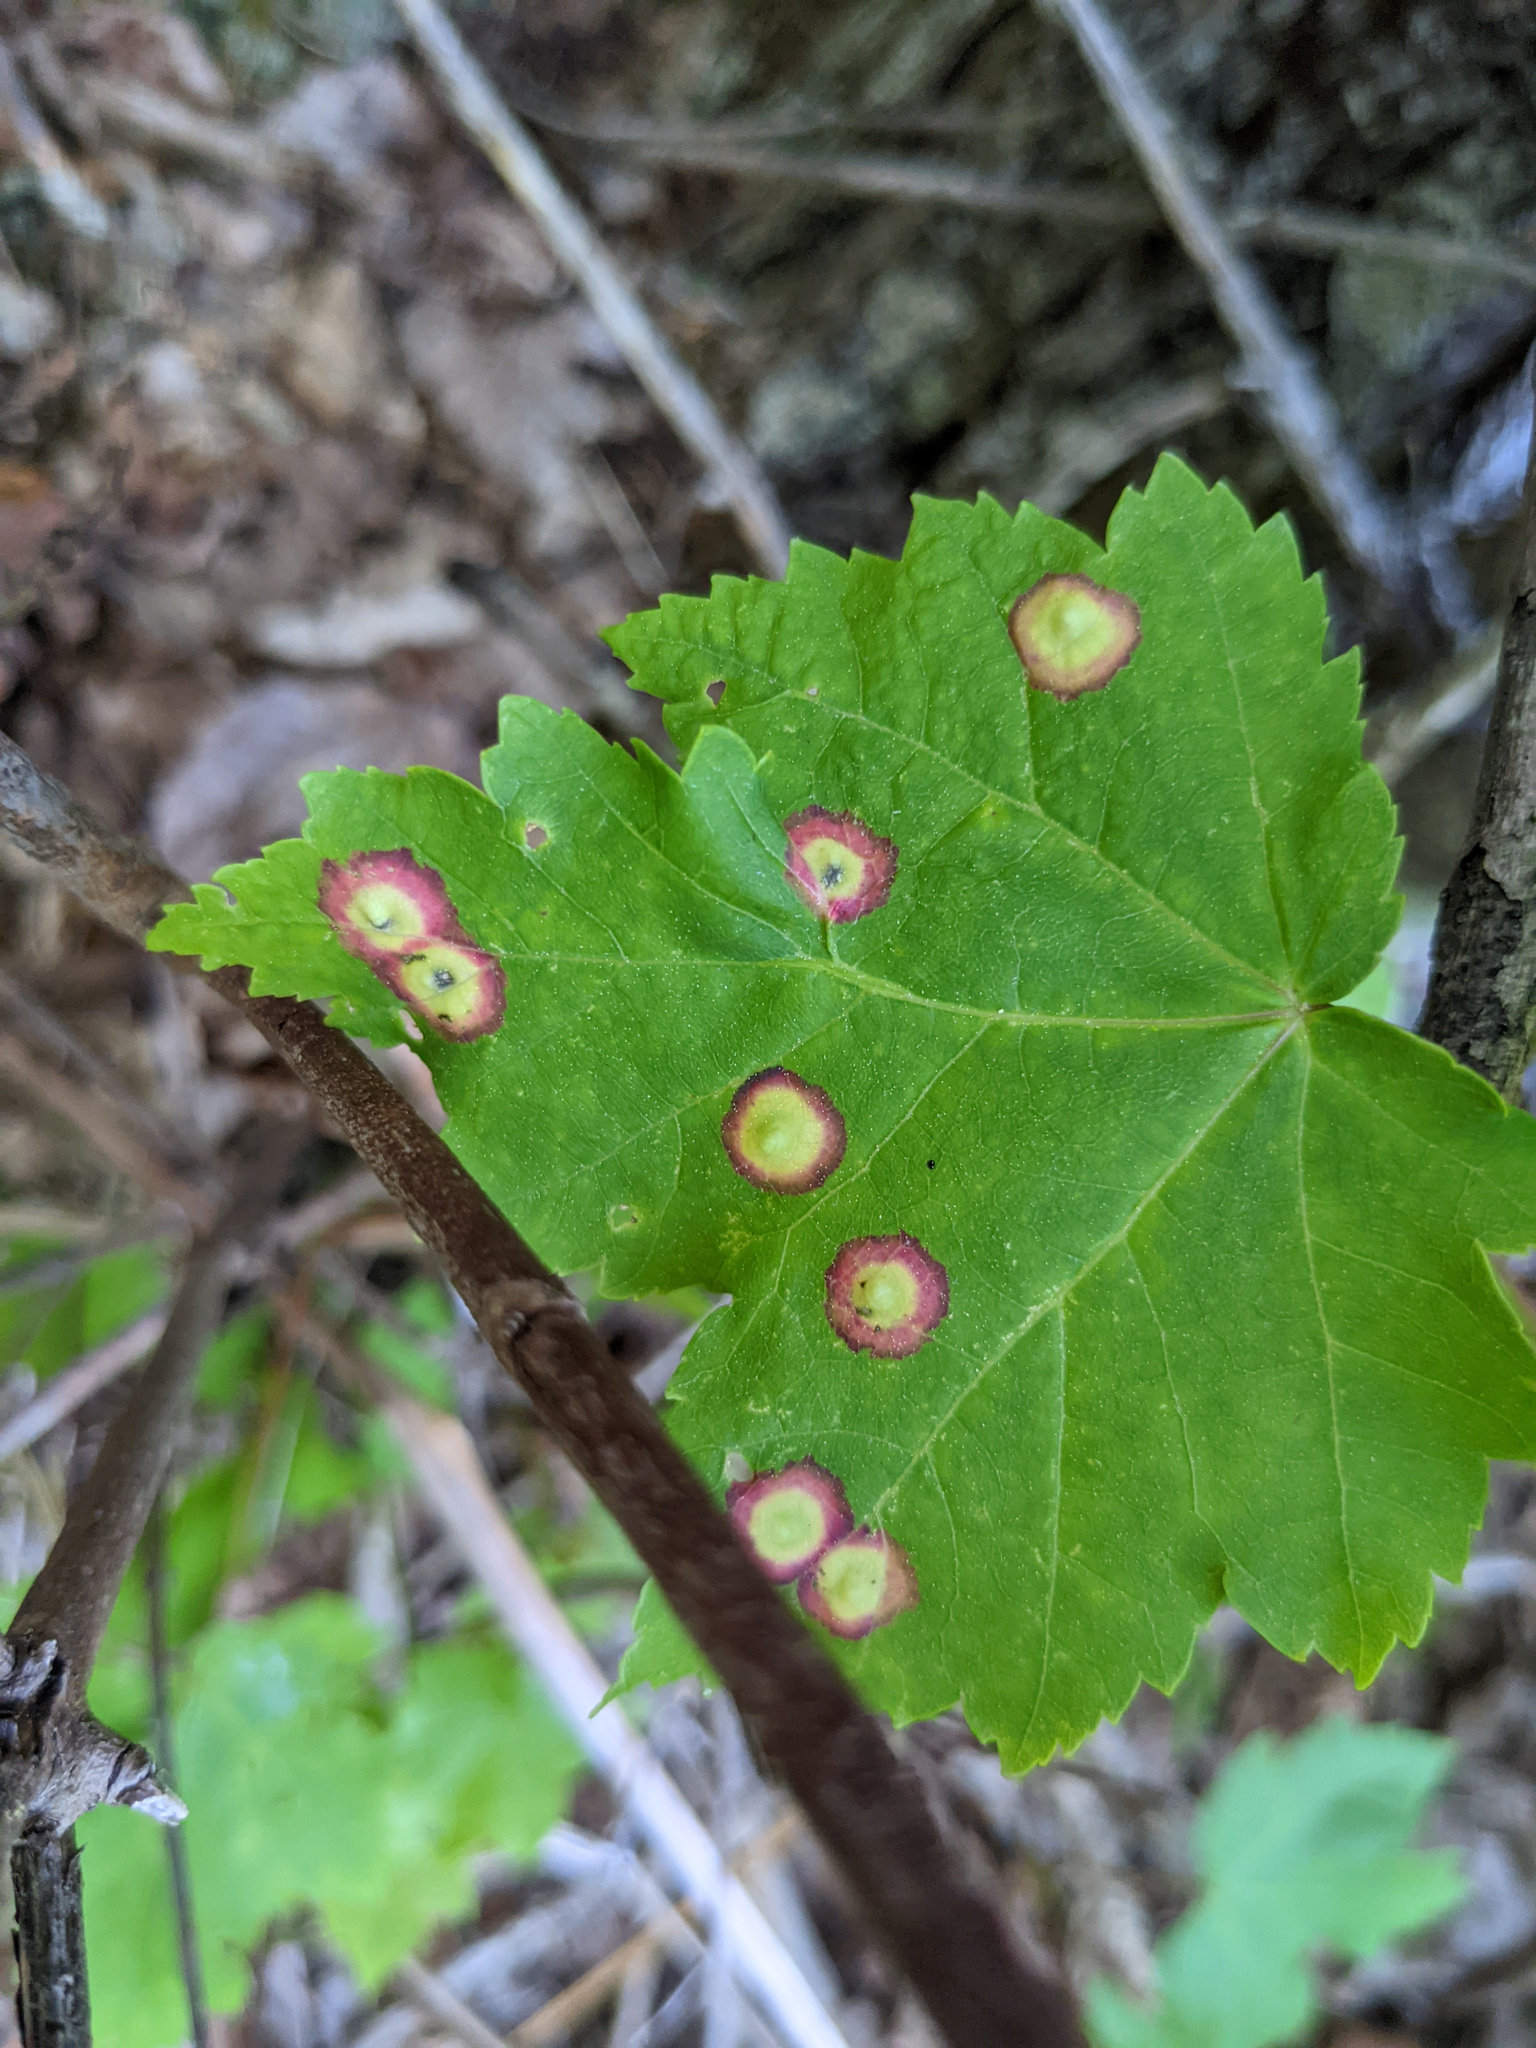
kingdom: Plantae
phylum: Tracheophyta
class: Magnoliopsida
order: Sapindales
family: Sapindaceae
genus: Acer
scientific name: Acer rubrum
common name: Red maple
